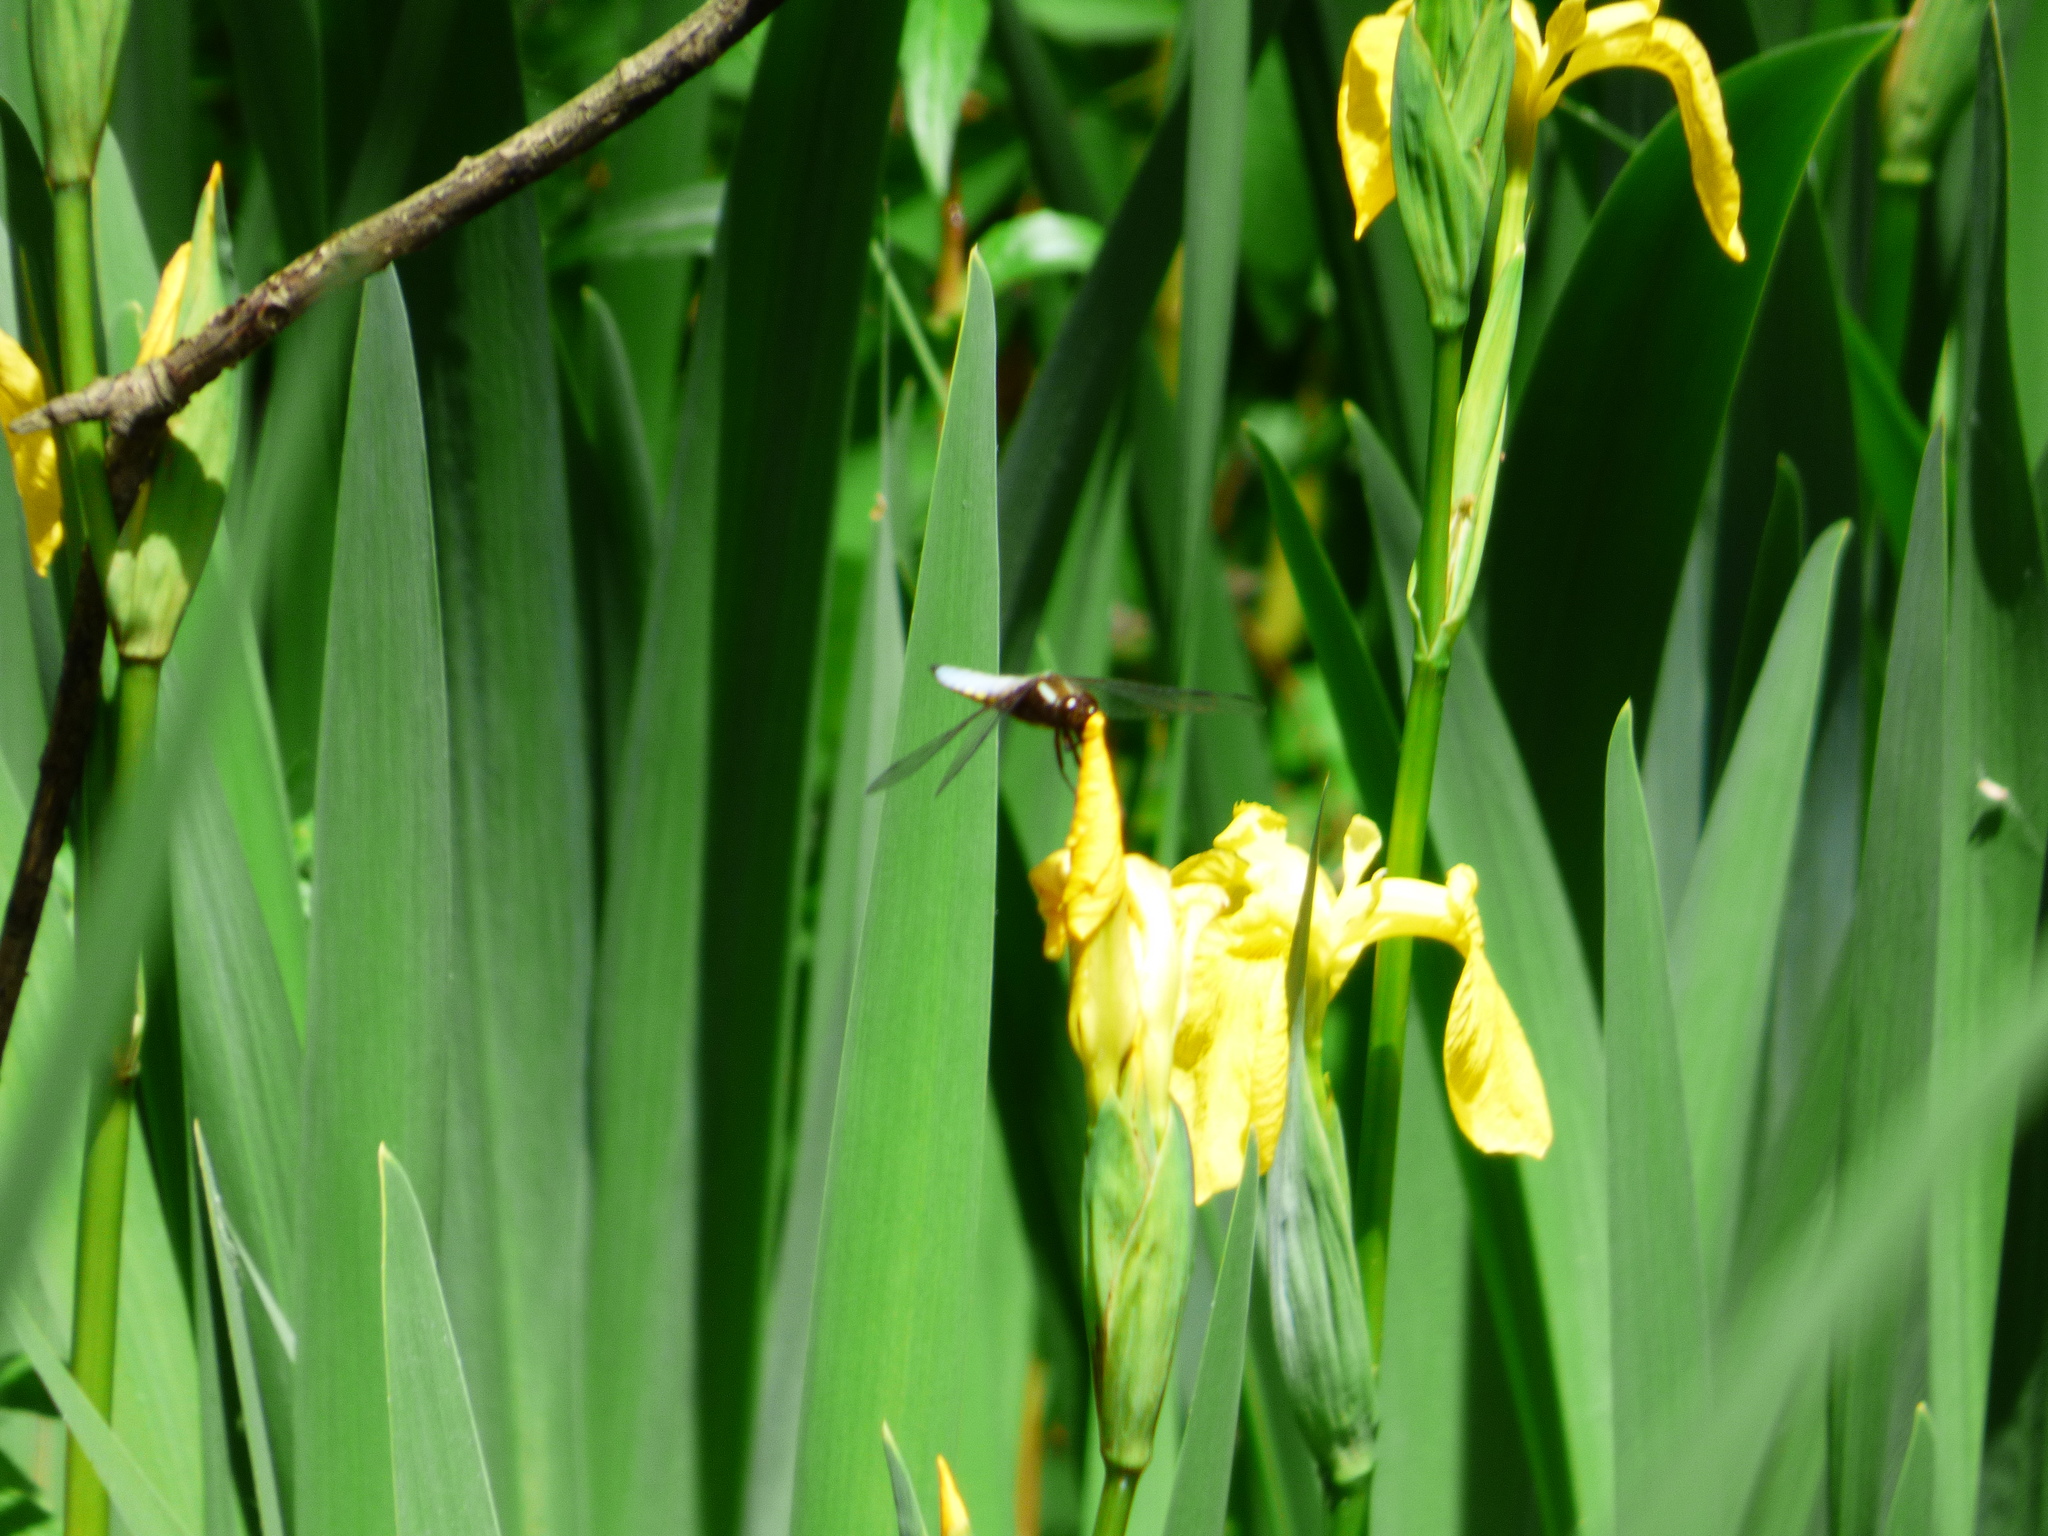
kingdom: Animalia
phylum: Arthropoda
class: Insecta
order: Odonata
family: Libellulidae
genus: Libellula
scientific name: Libellula depressa
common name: Broad-bodied chaser
